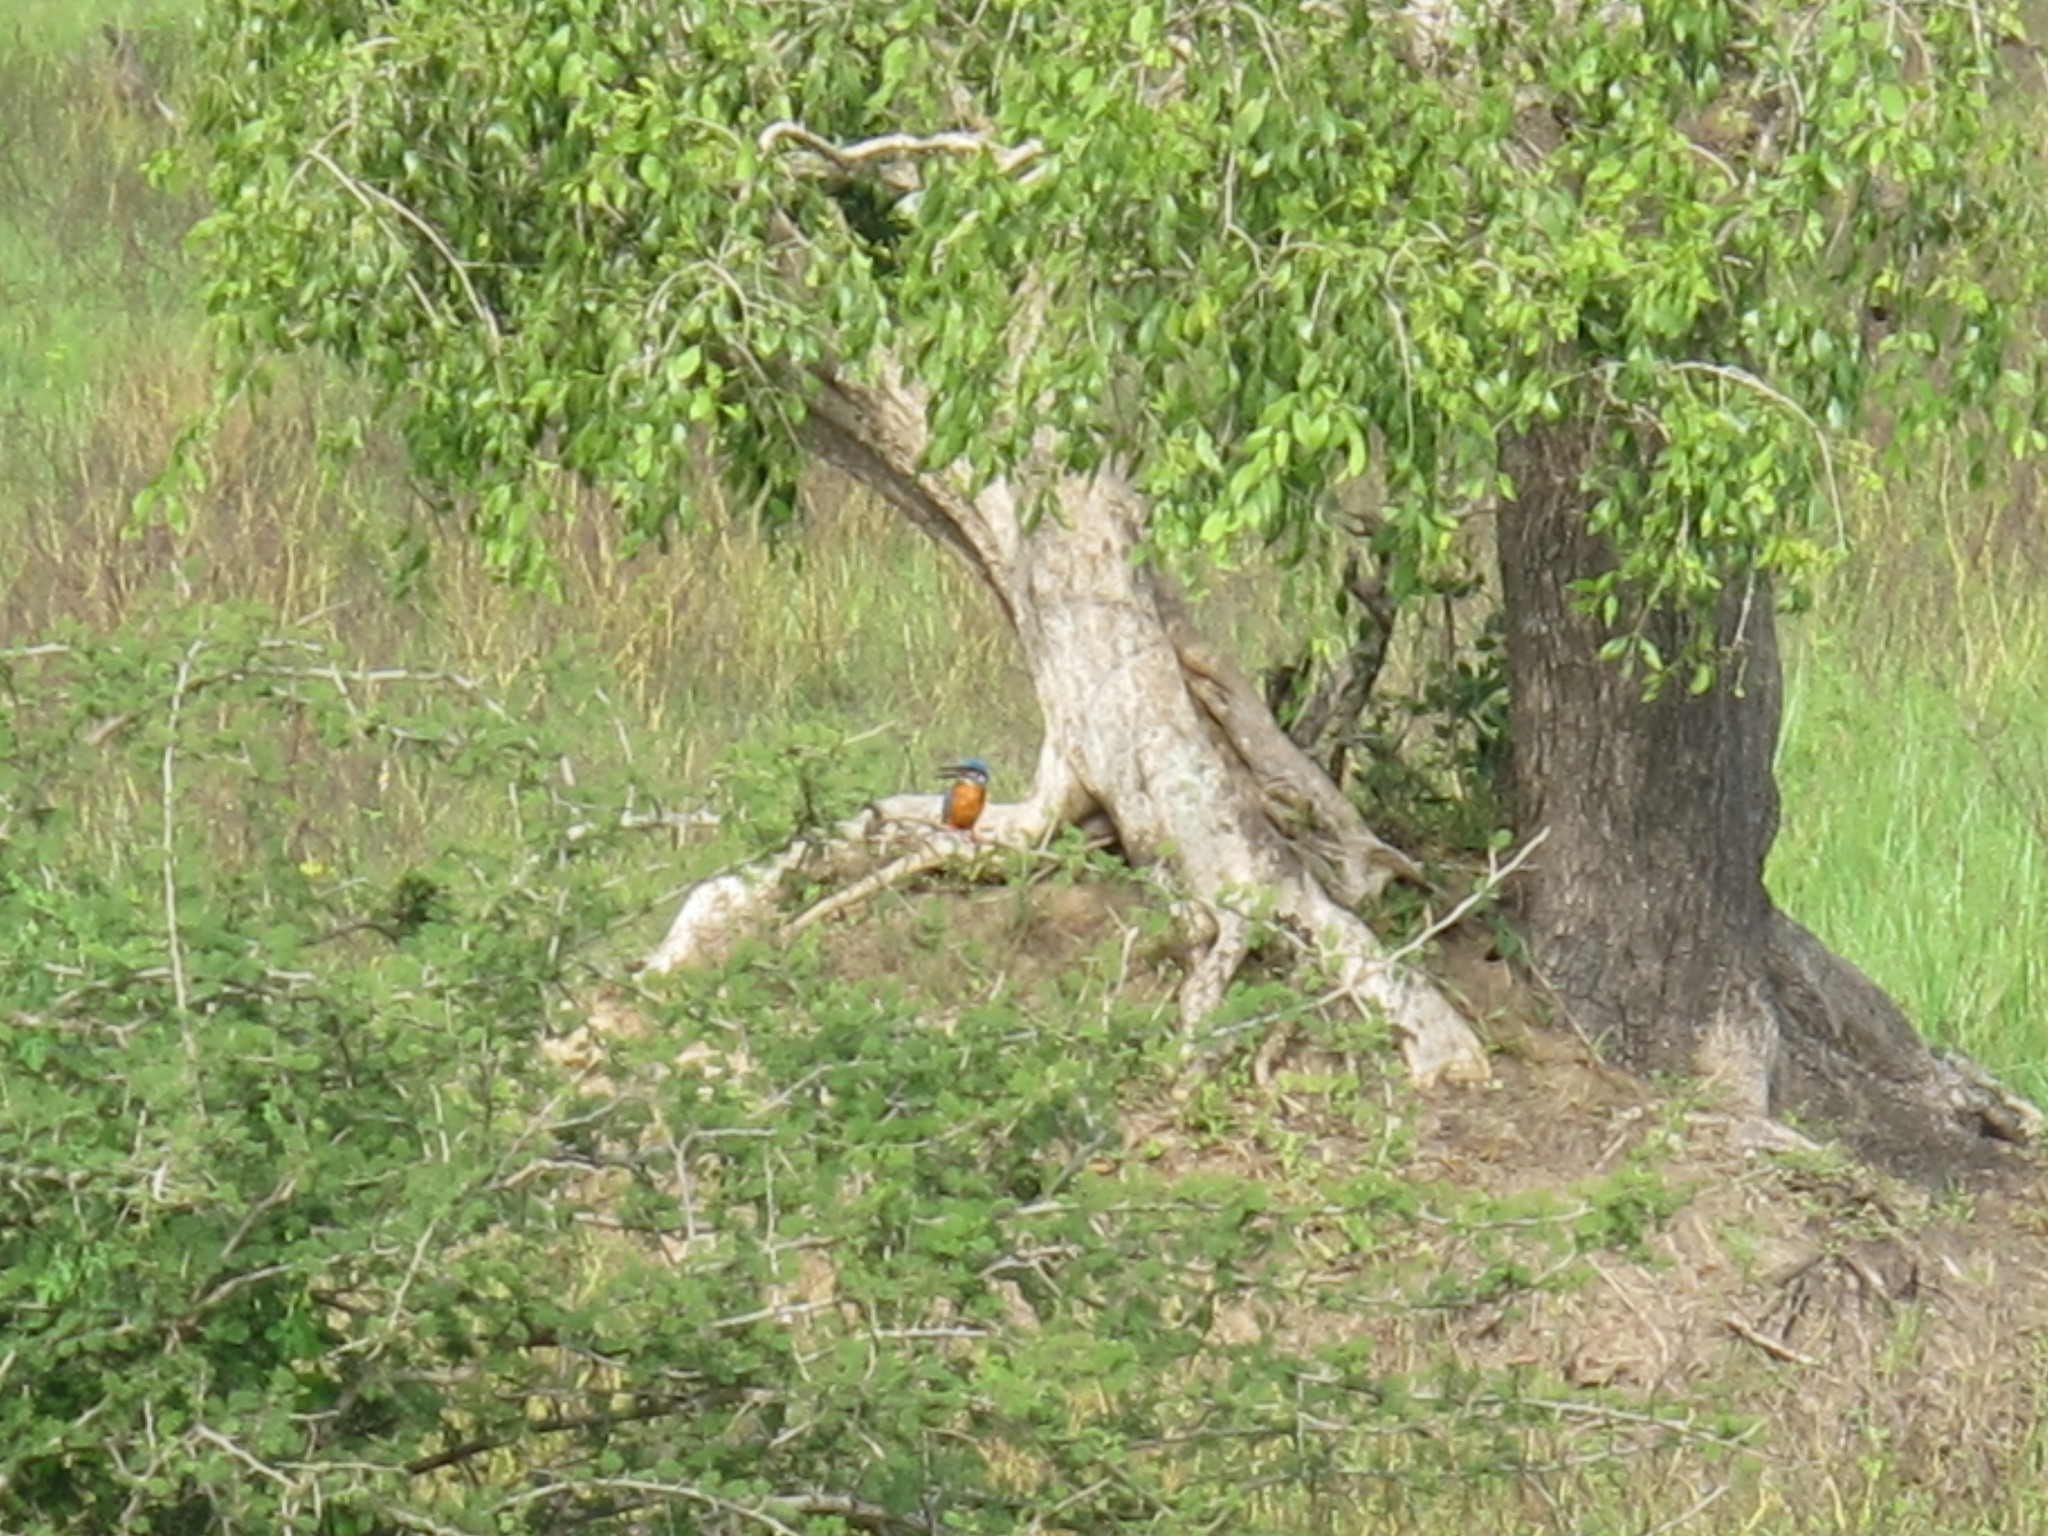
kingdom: Animalia
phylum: Chordata
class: Aves
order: Coraciiformes
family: Alcedinidae
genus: Alcedo
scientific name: Alcedo atthis
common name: Common kingfisher
